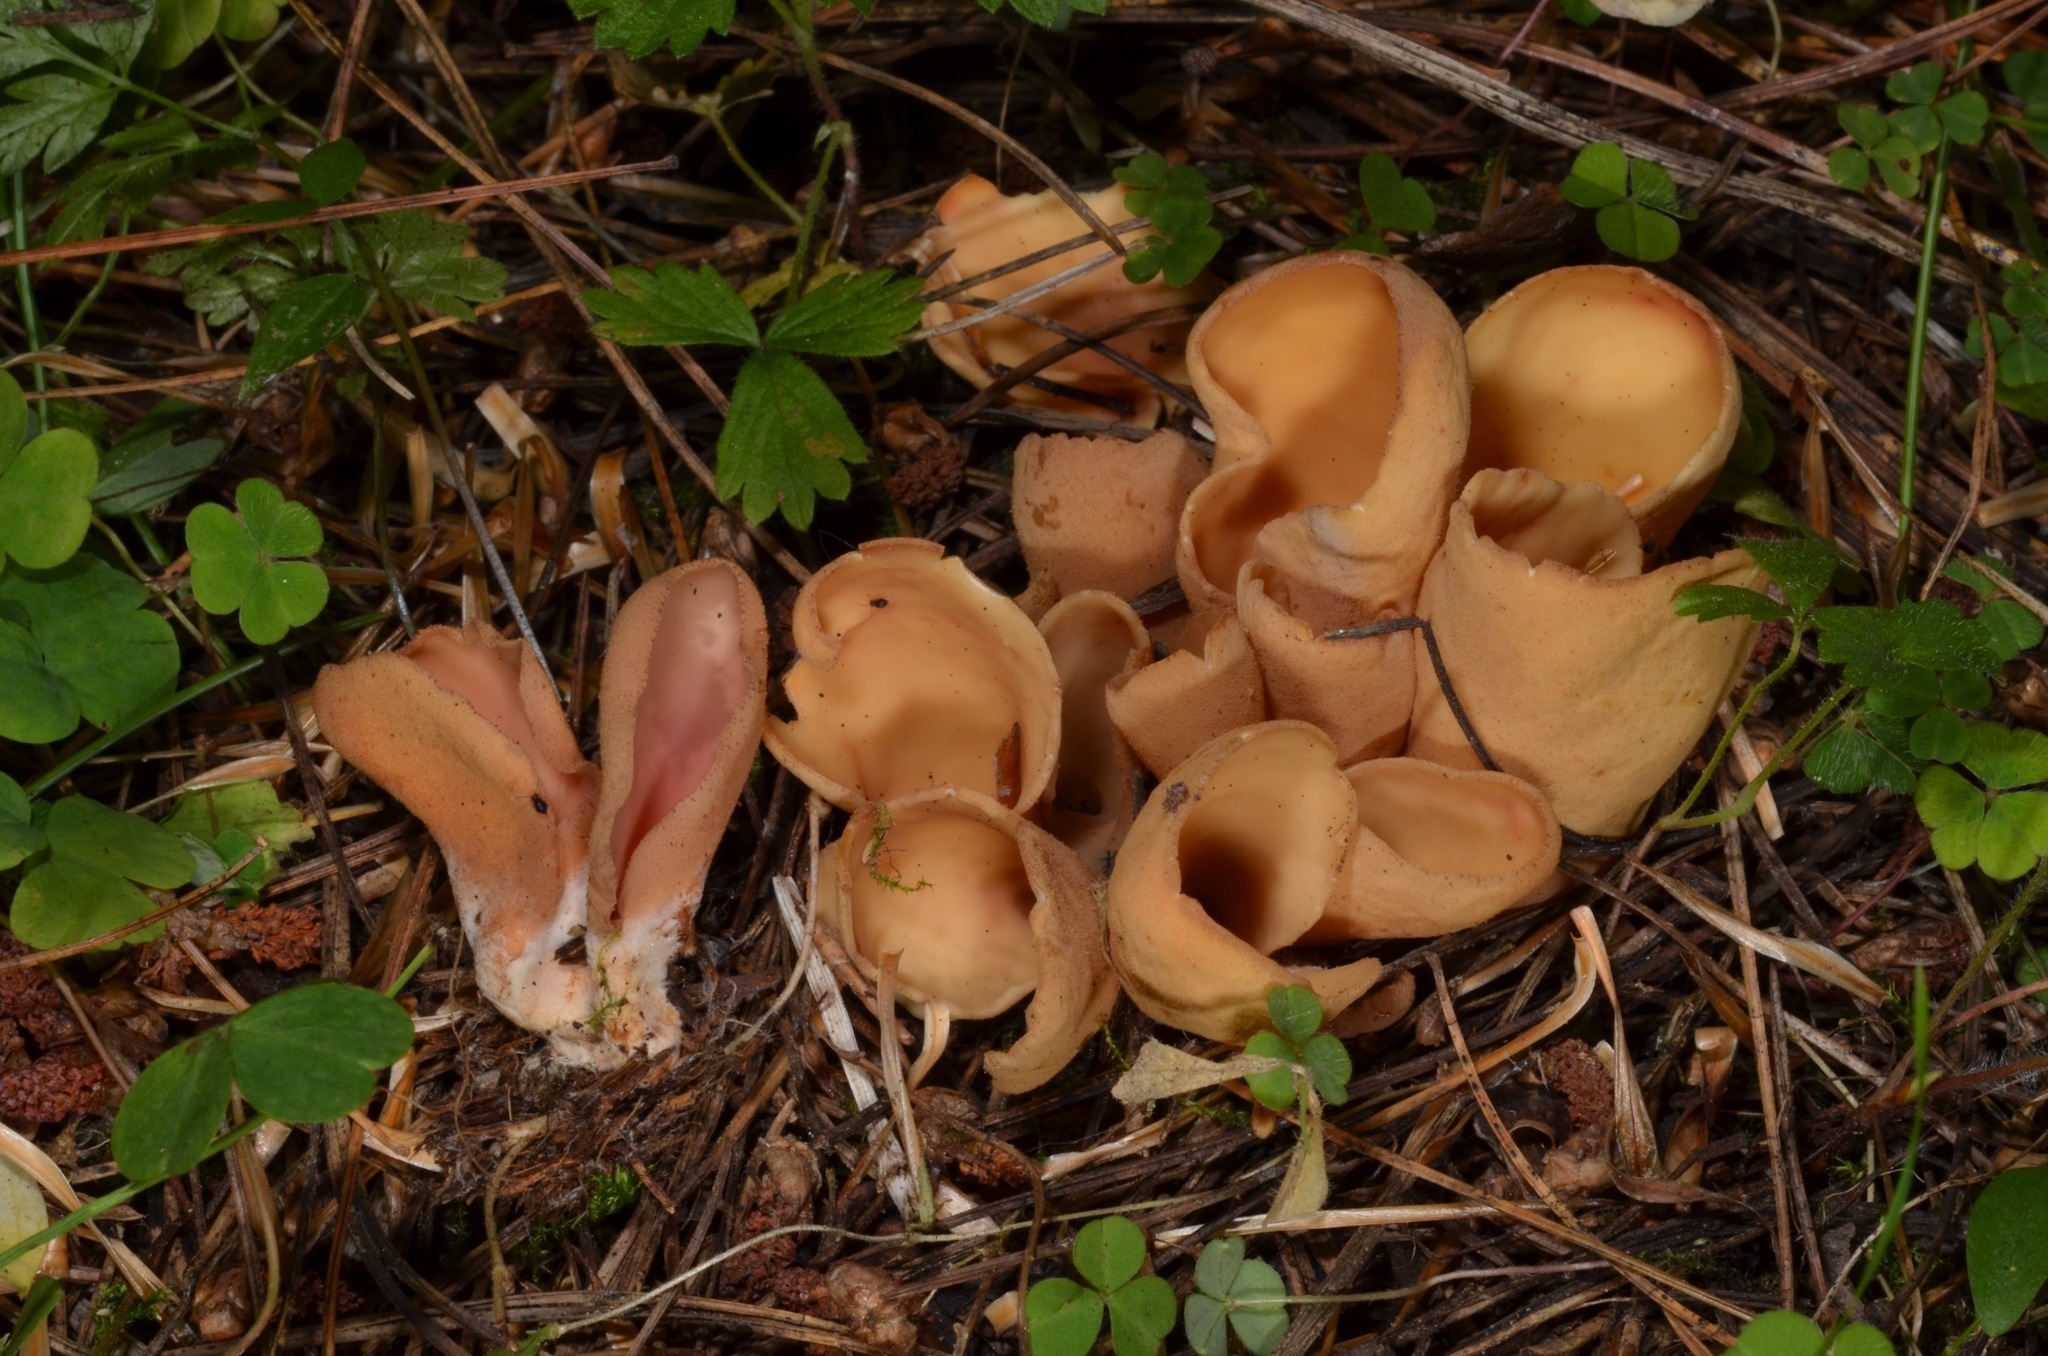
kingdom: Fungi
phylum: Ascomycota
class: Pezizomycetes
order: Pezizales
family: Otideaceae
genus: Otidea
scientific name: Otidea onotica
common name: Hare's ear
